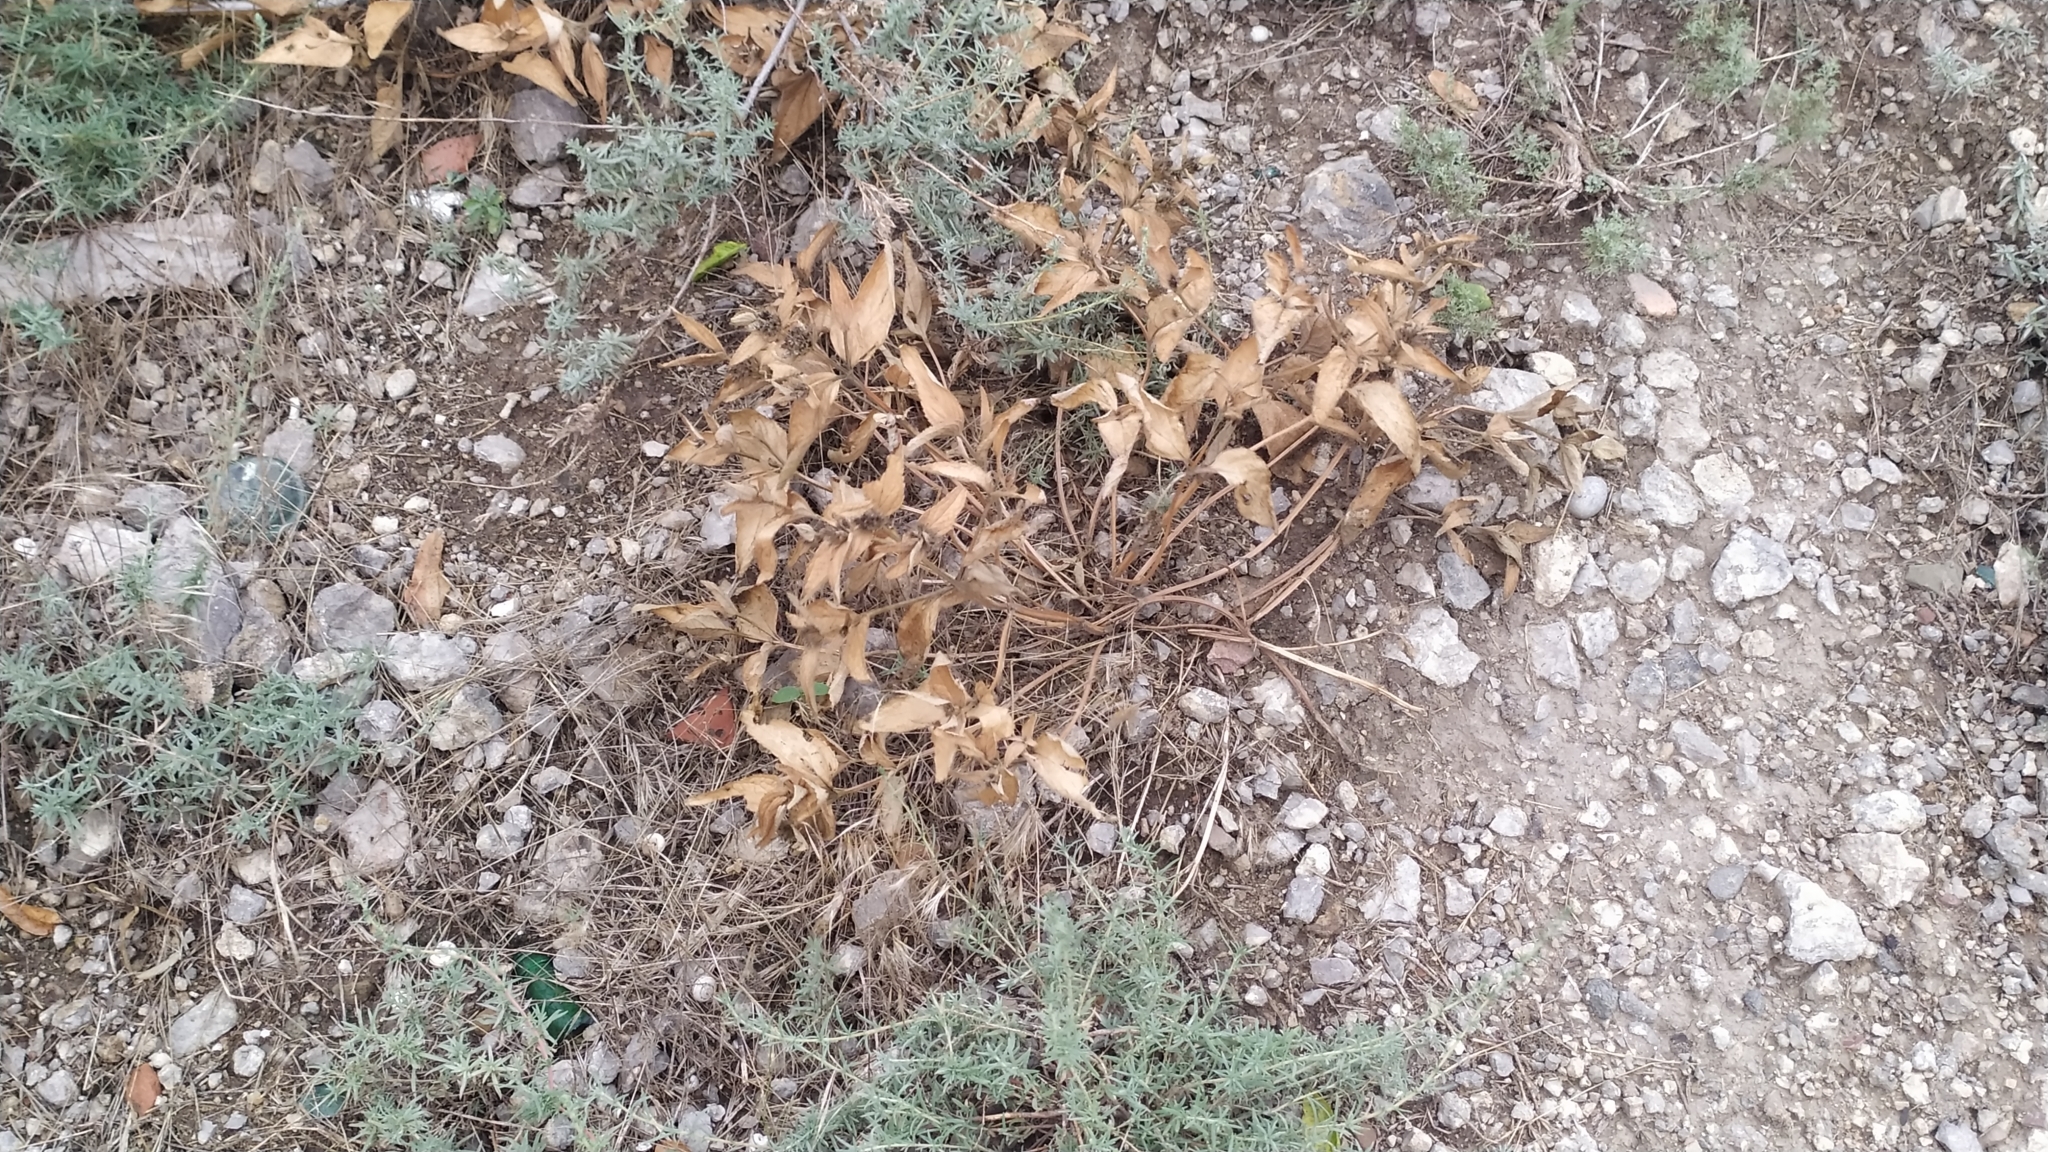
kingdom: Plantae
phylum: Tracheophyta
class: Magnoliopsida
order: Lamiales
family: Lamiaceae
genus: Phlomis
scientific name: Phlomis herba-venti
